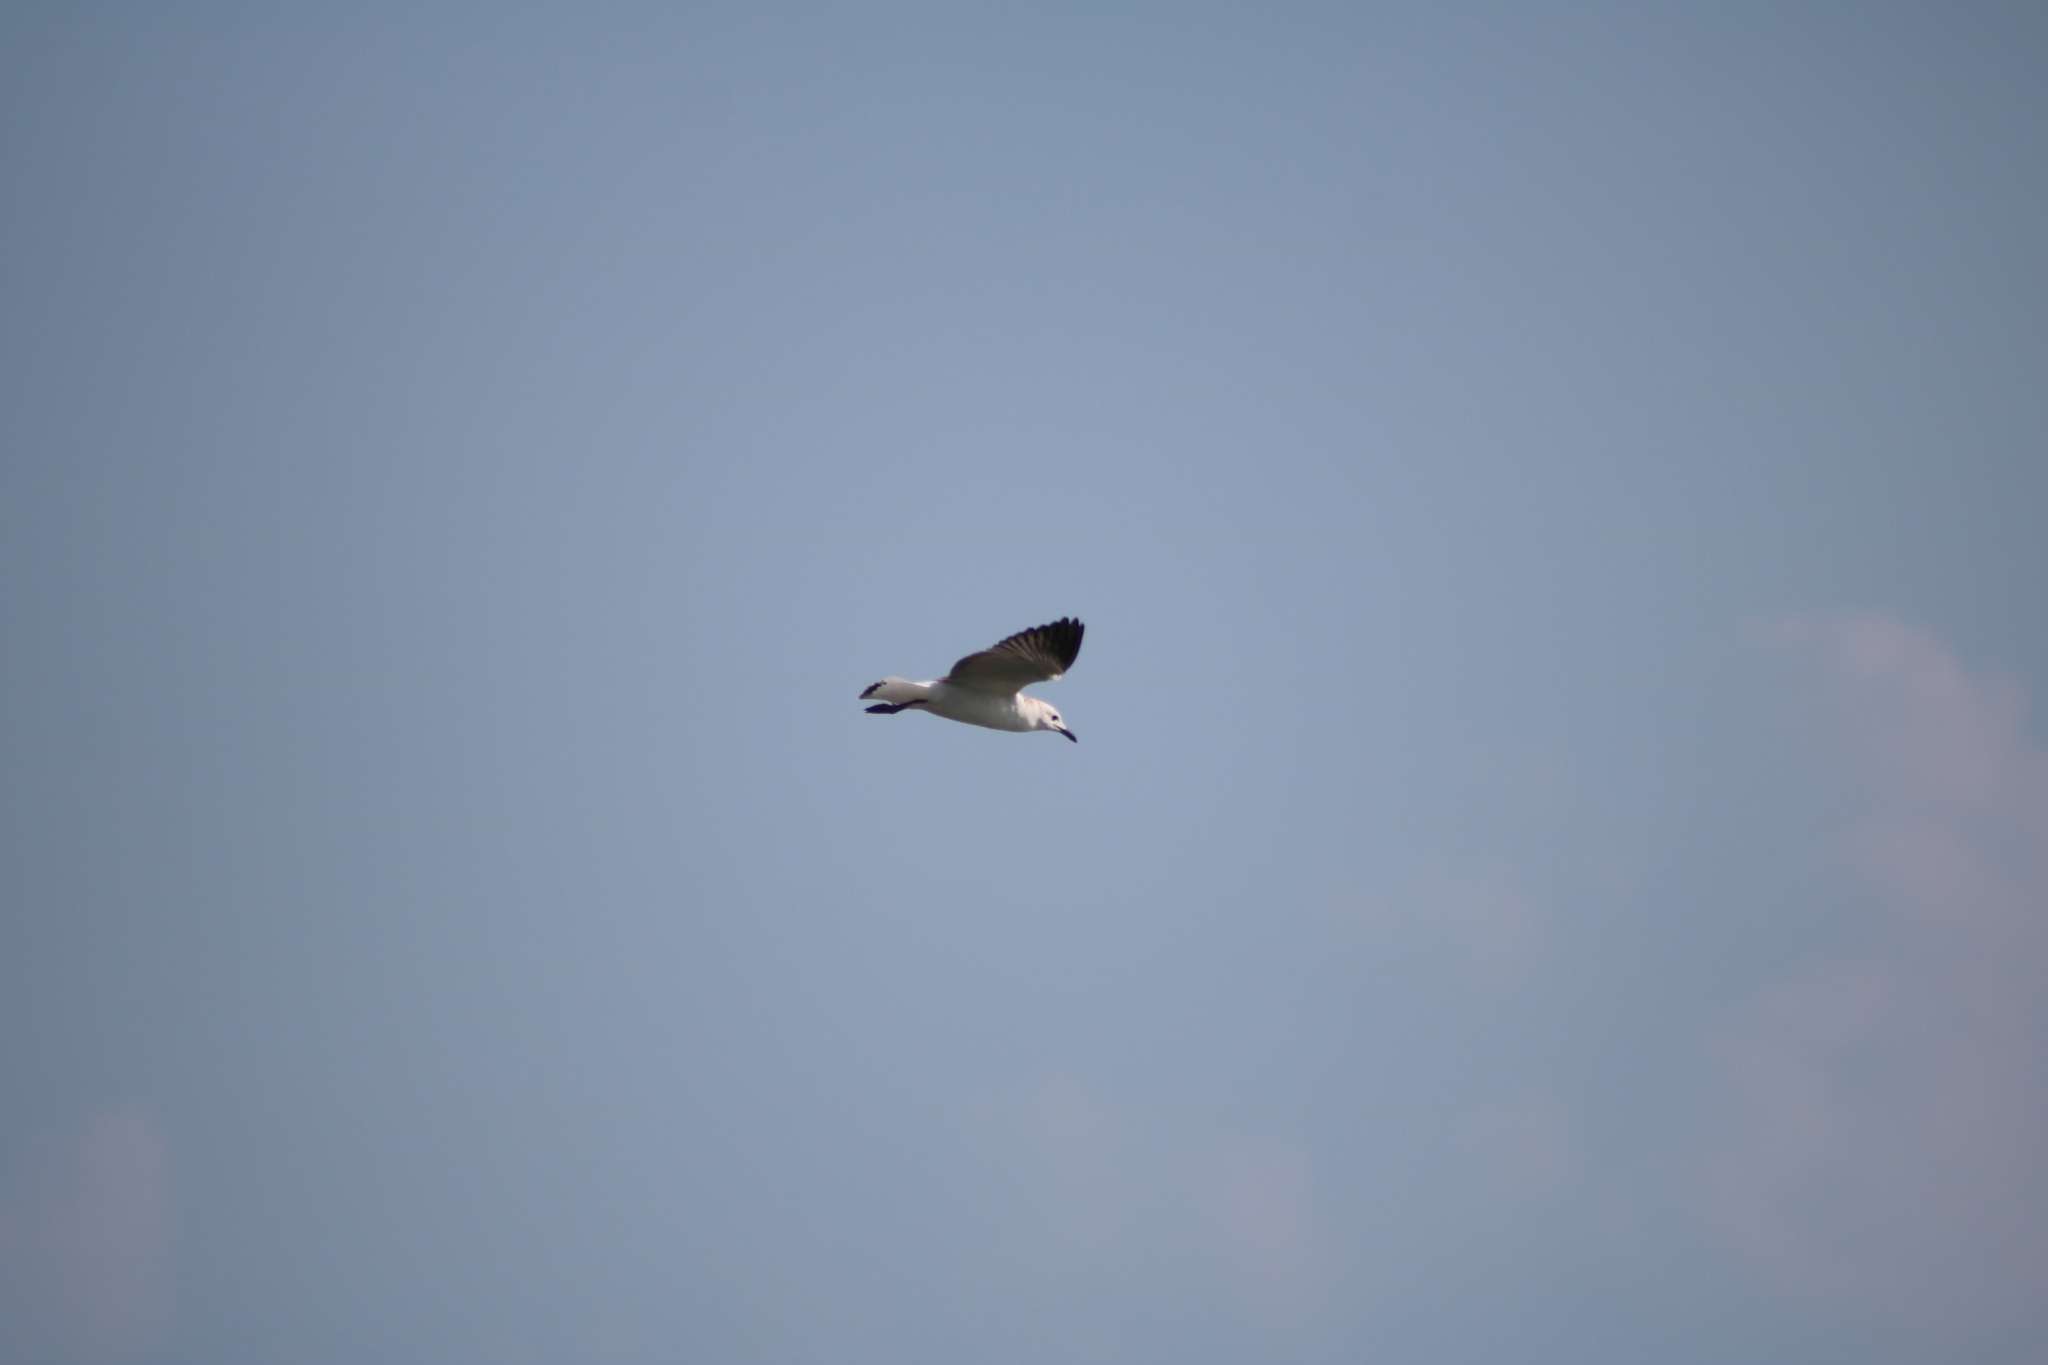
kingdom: Animalia
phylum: Chordata
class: Aves
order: Charadriiformes
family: Laridae
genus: Chroicocephalus
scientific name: Chroicocephalus novaehollandiae
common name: Silver gull
